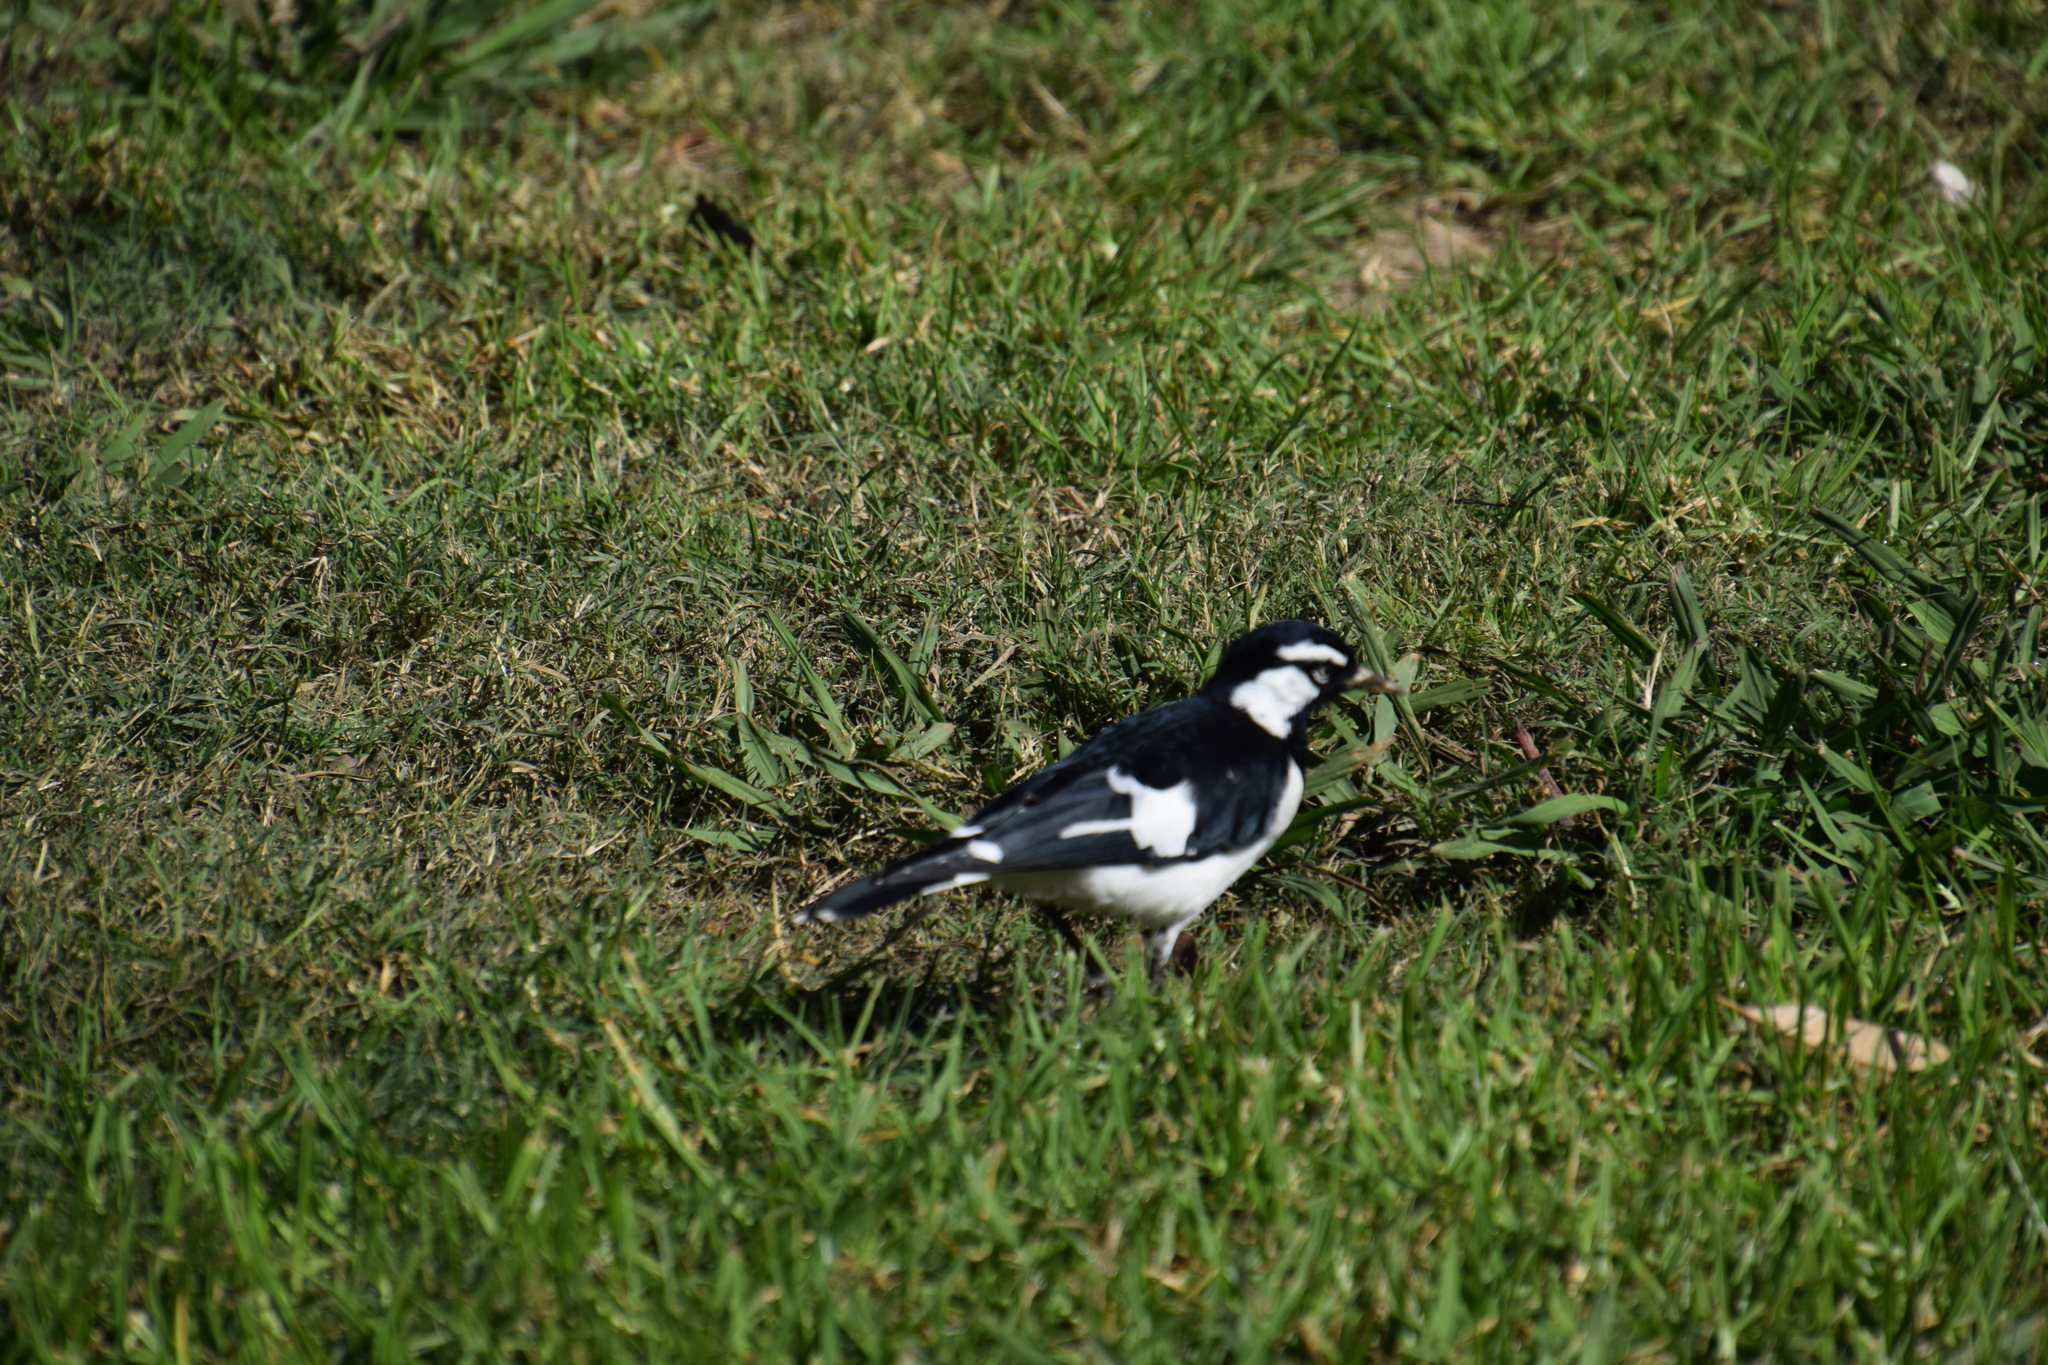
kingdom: Animalia
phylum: Chordata
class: Aves
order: Passeriformes
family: Monarchidae
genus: Grallina
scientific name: Grallina cyanoleuca
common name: Magpie-lark
